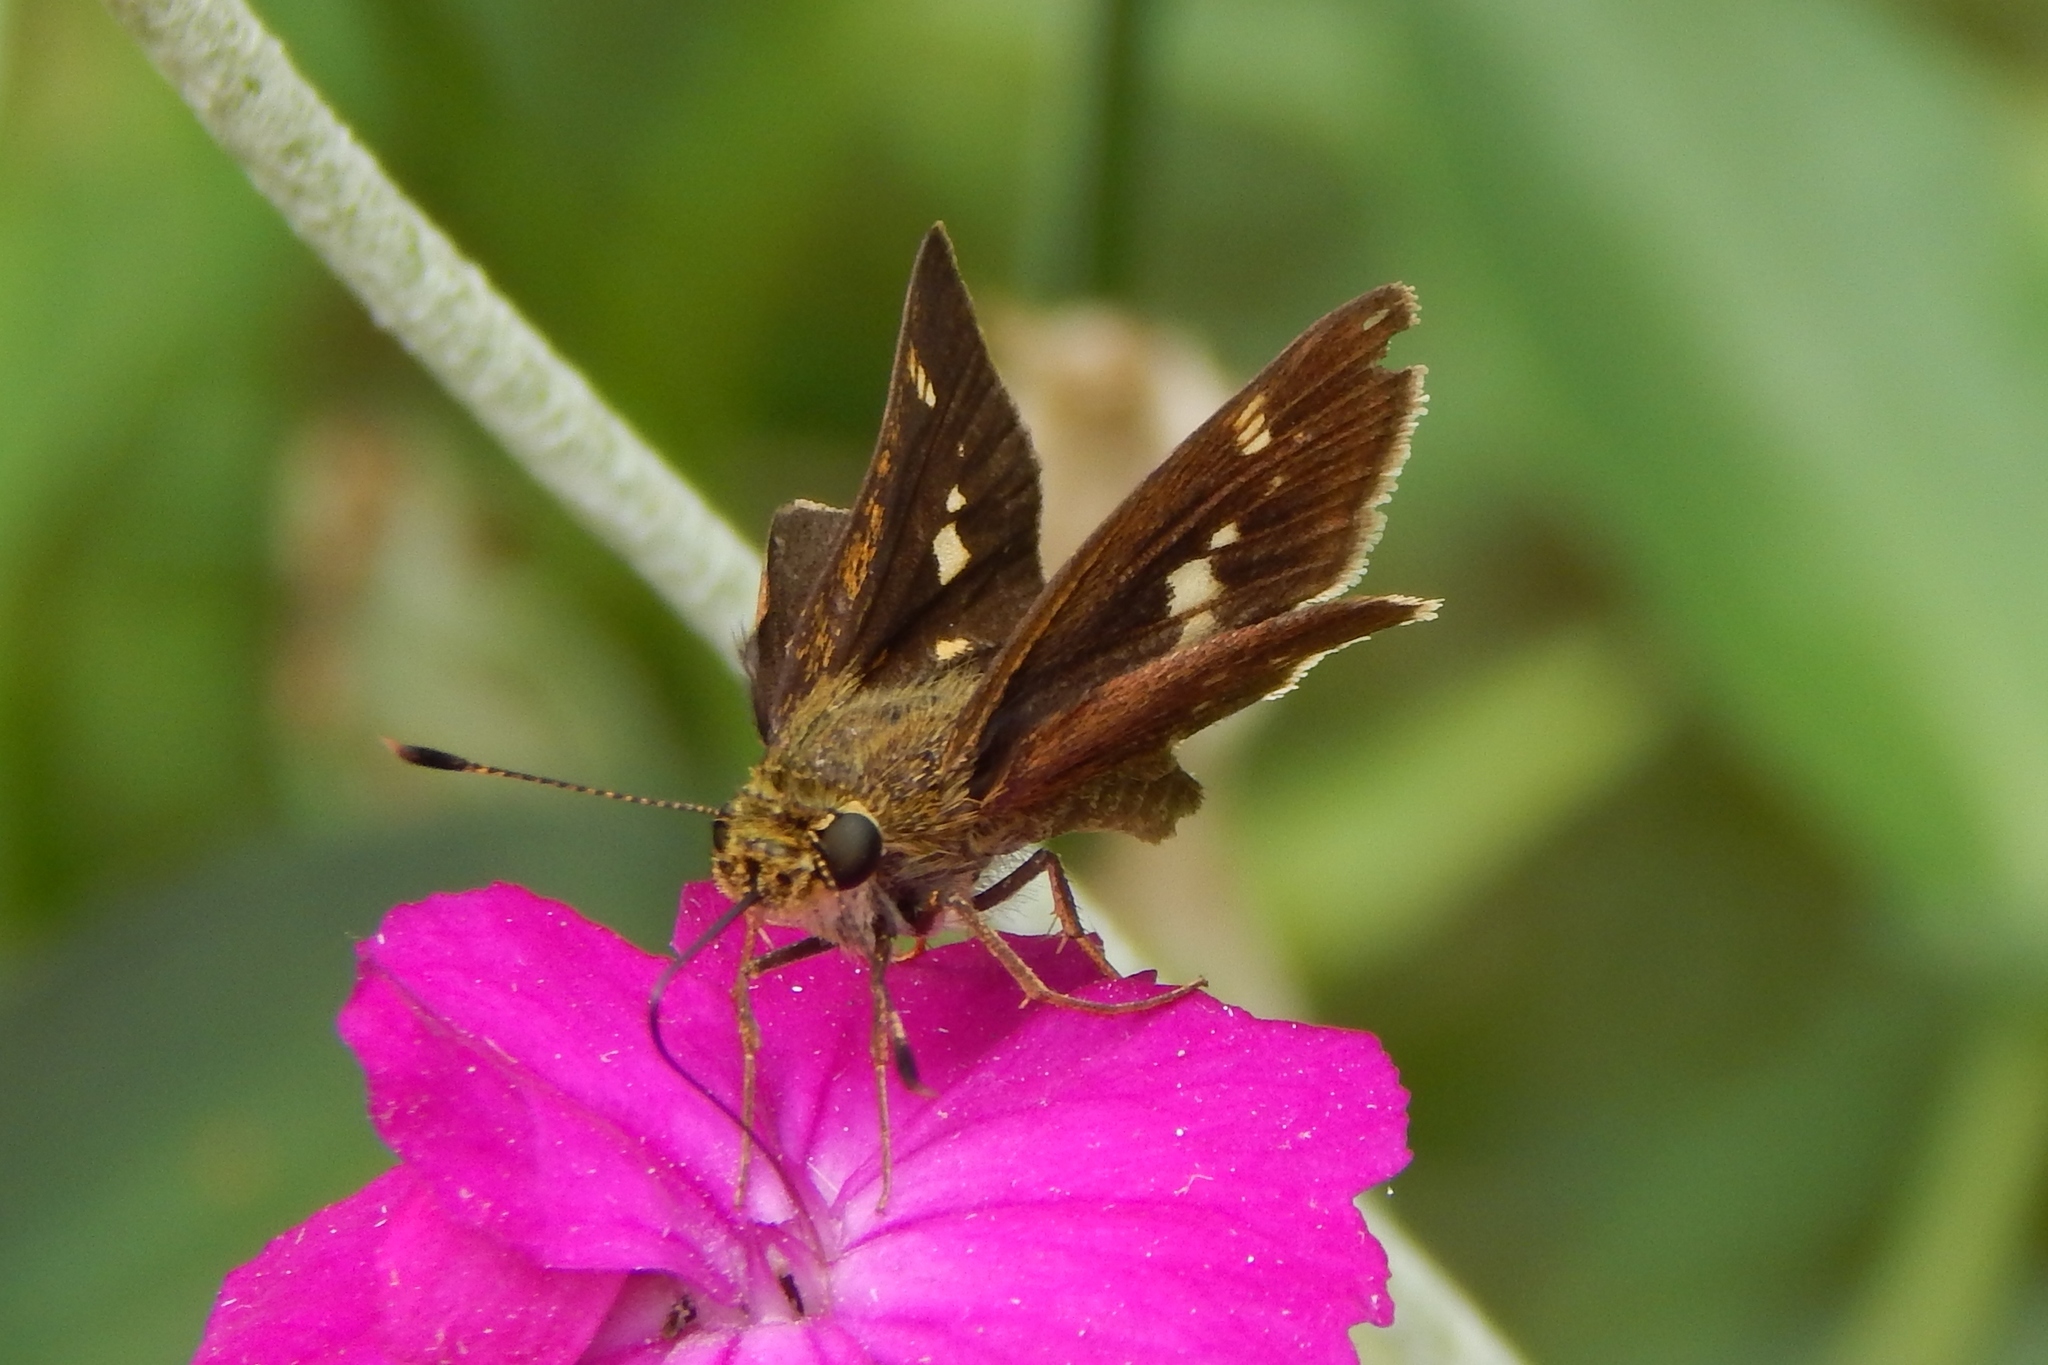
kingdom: Animalia
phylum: Arthropoda
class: Insecta
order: Lepidoptera
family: Hesperiidae
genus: Vernia
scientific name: Vernia verna
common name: Little glassywing
